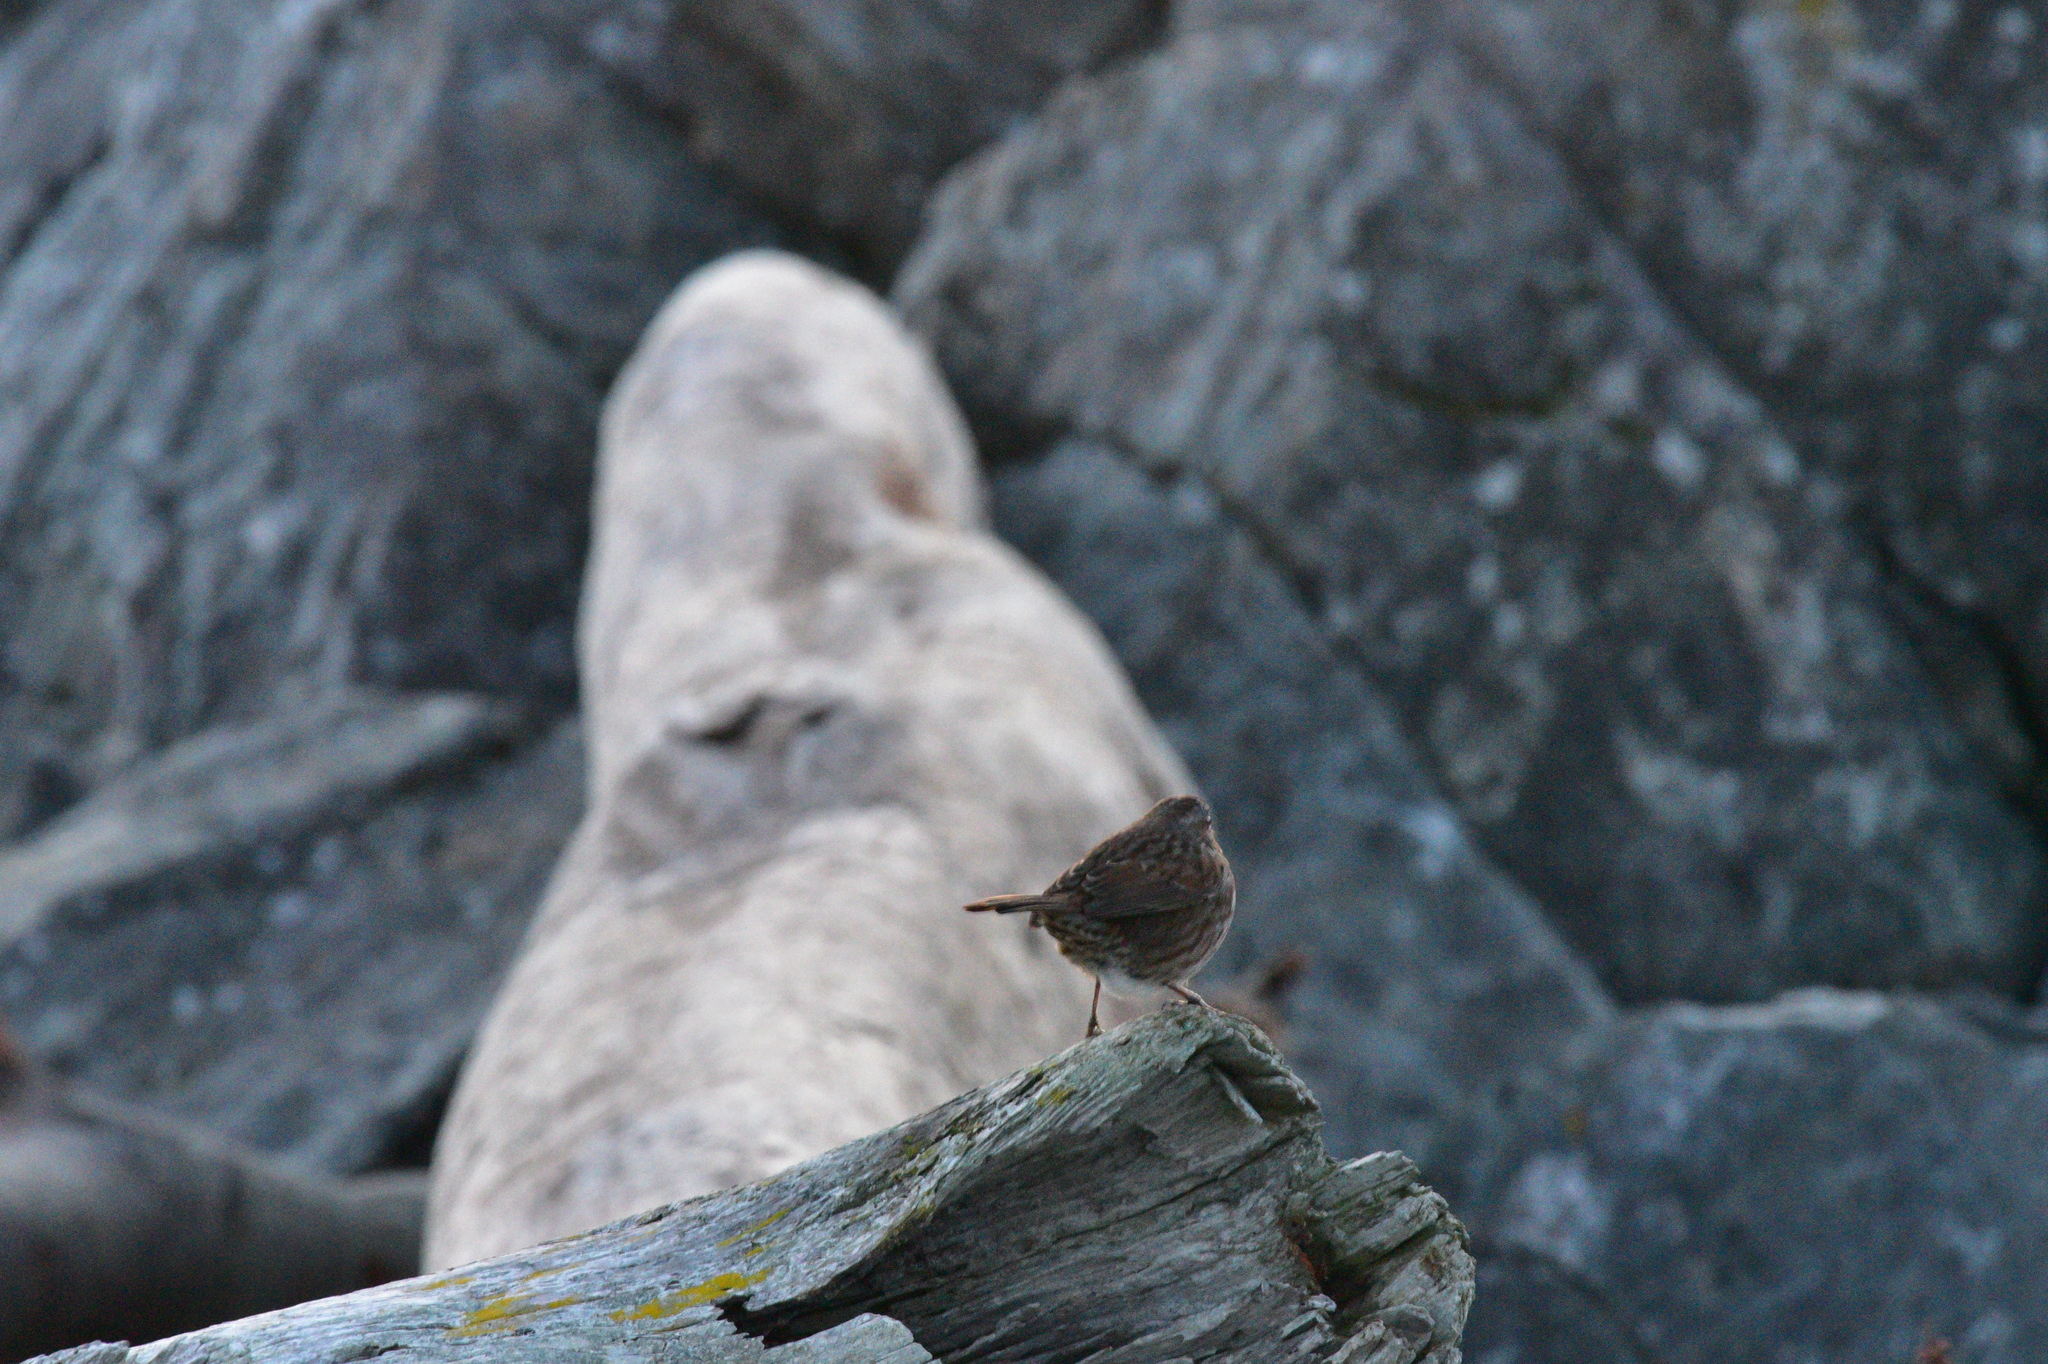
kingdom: Animalia
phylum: Chordata
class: Aves
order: Passeriformes
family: Passerellidae
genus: Melospiza
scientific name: Melospiza melodia
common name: Song sparrow
